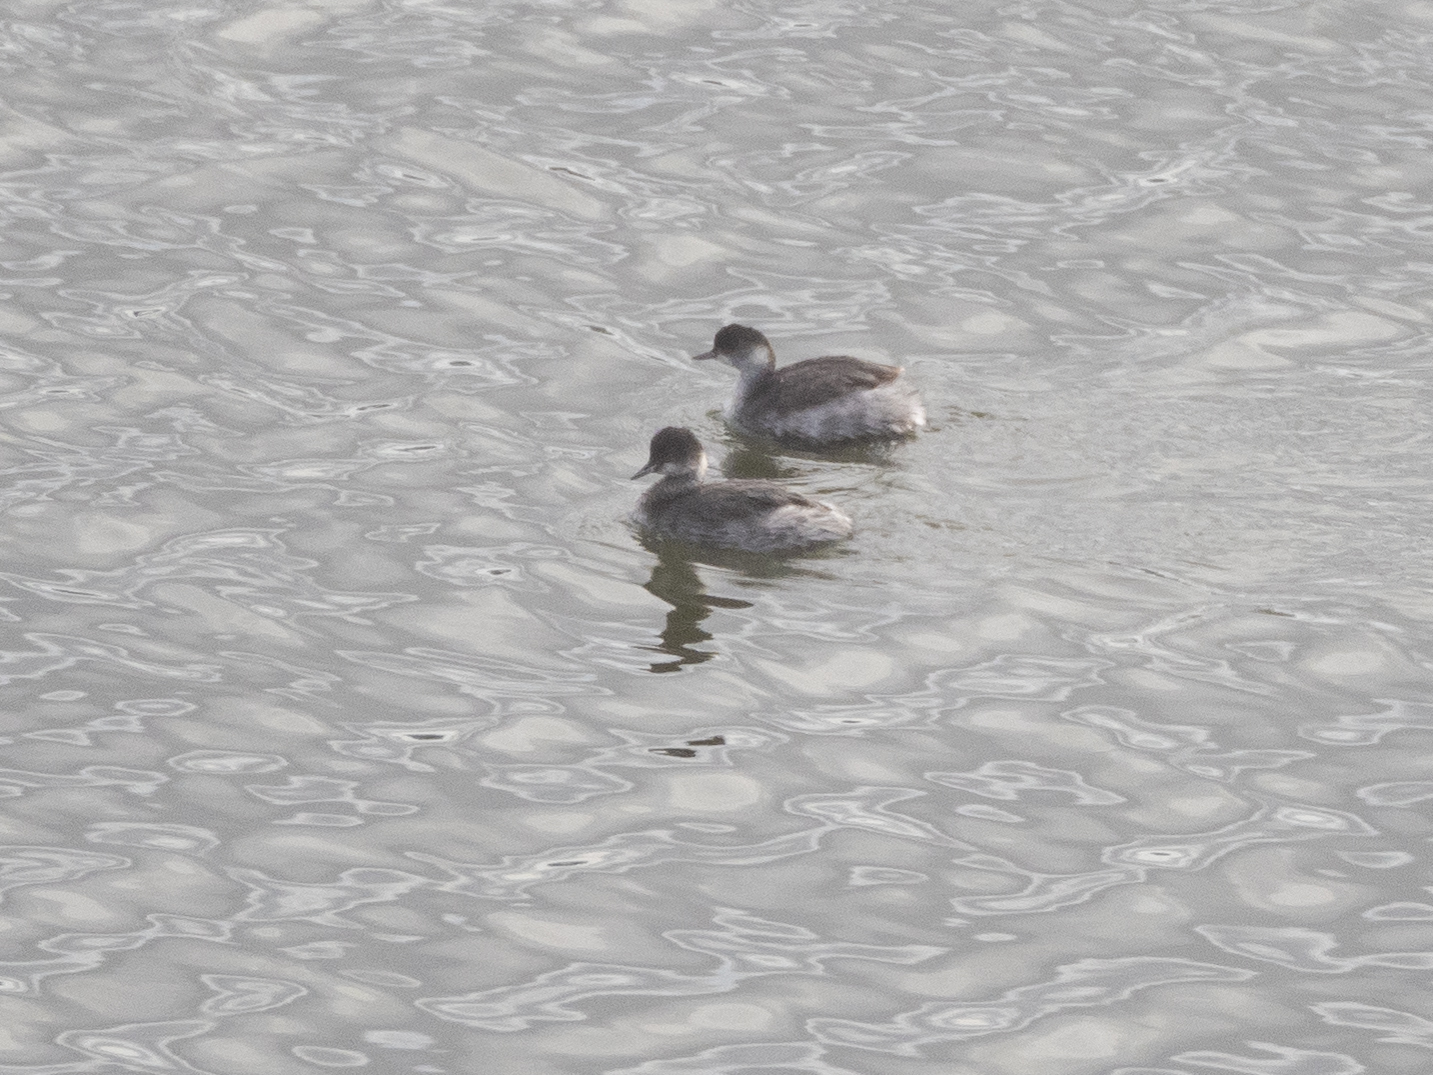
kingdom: Animalia
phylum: Chordata
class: Aves
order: Podicipediformes
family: Podicipedidae
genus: Podiceps
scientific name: Podiceps nigricollis
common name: Black-necked grebe
